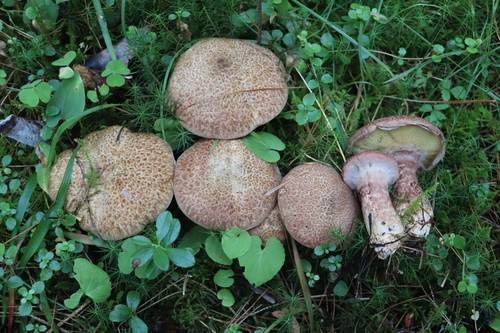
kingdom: Fungi
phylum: Basidiomycota
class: Agaricomycetes
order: Boletales
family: Suillaceae
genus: Suillus
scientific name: Suillus spraguei
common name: Painted suillus
